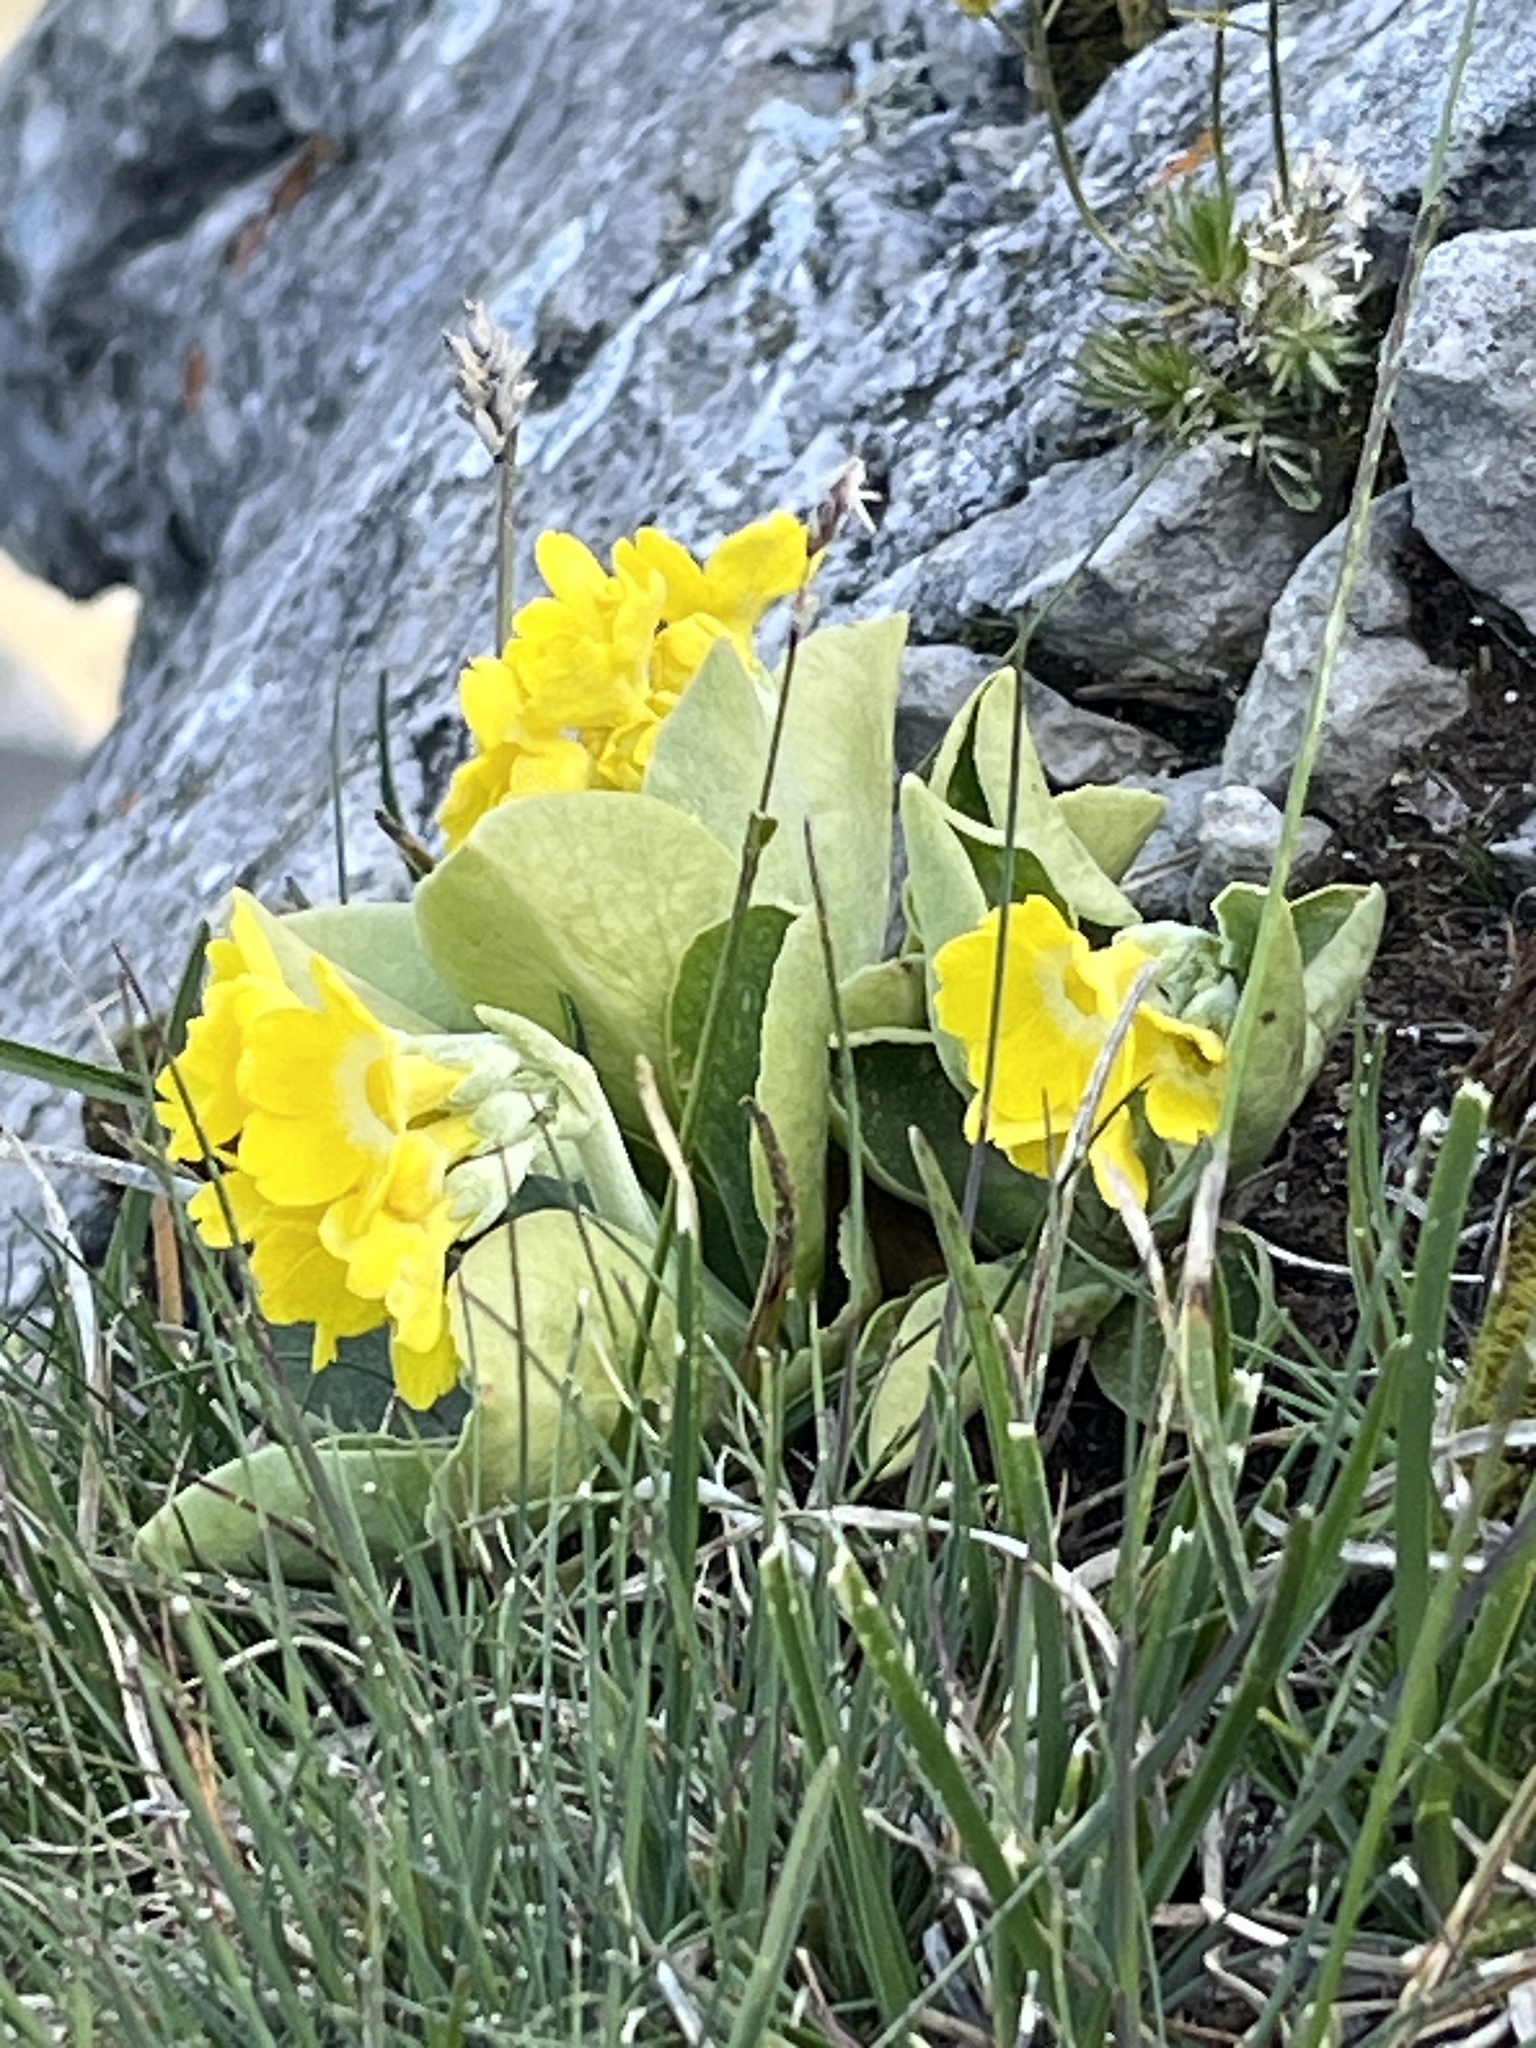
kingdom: Plantae
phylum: Tracheophyta
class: Magnoliopsida
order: Ericales
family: Primulaceae
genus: Primula
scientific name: Primula auricula
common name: Auricula
